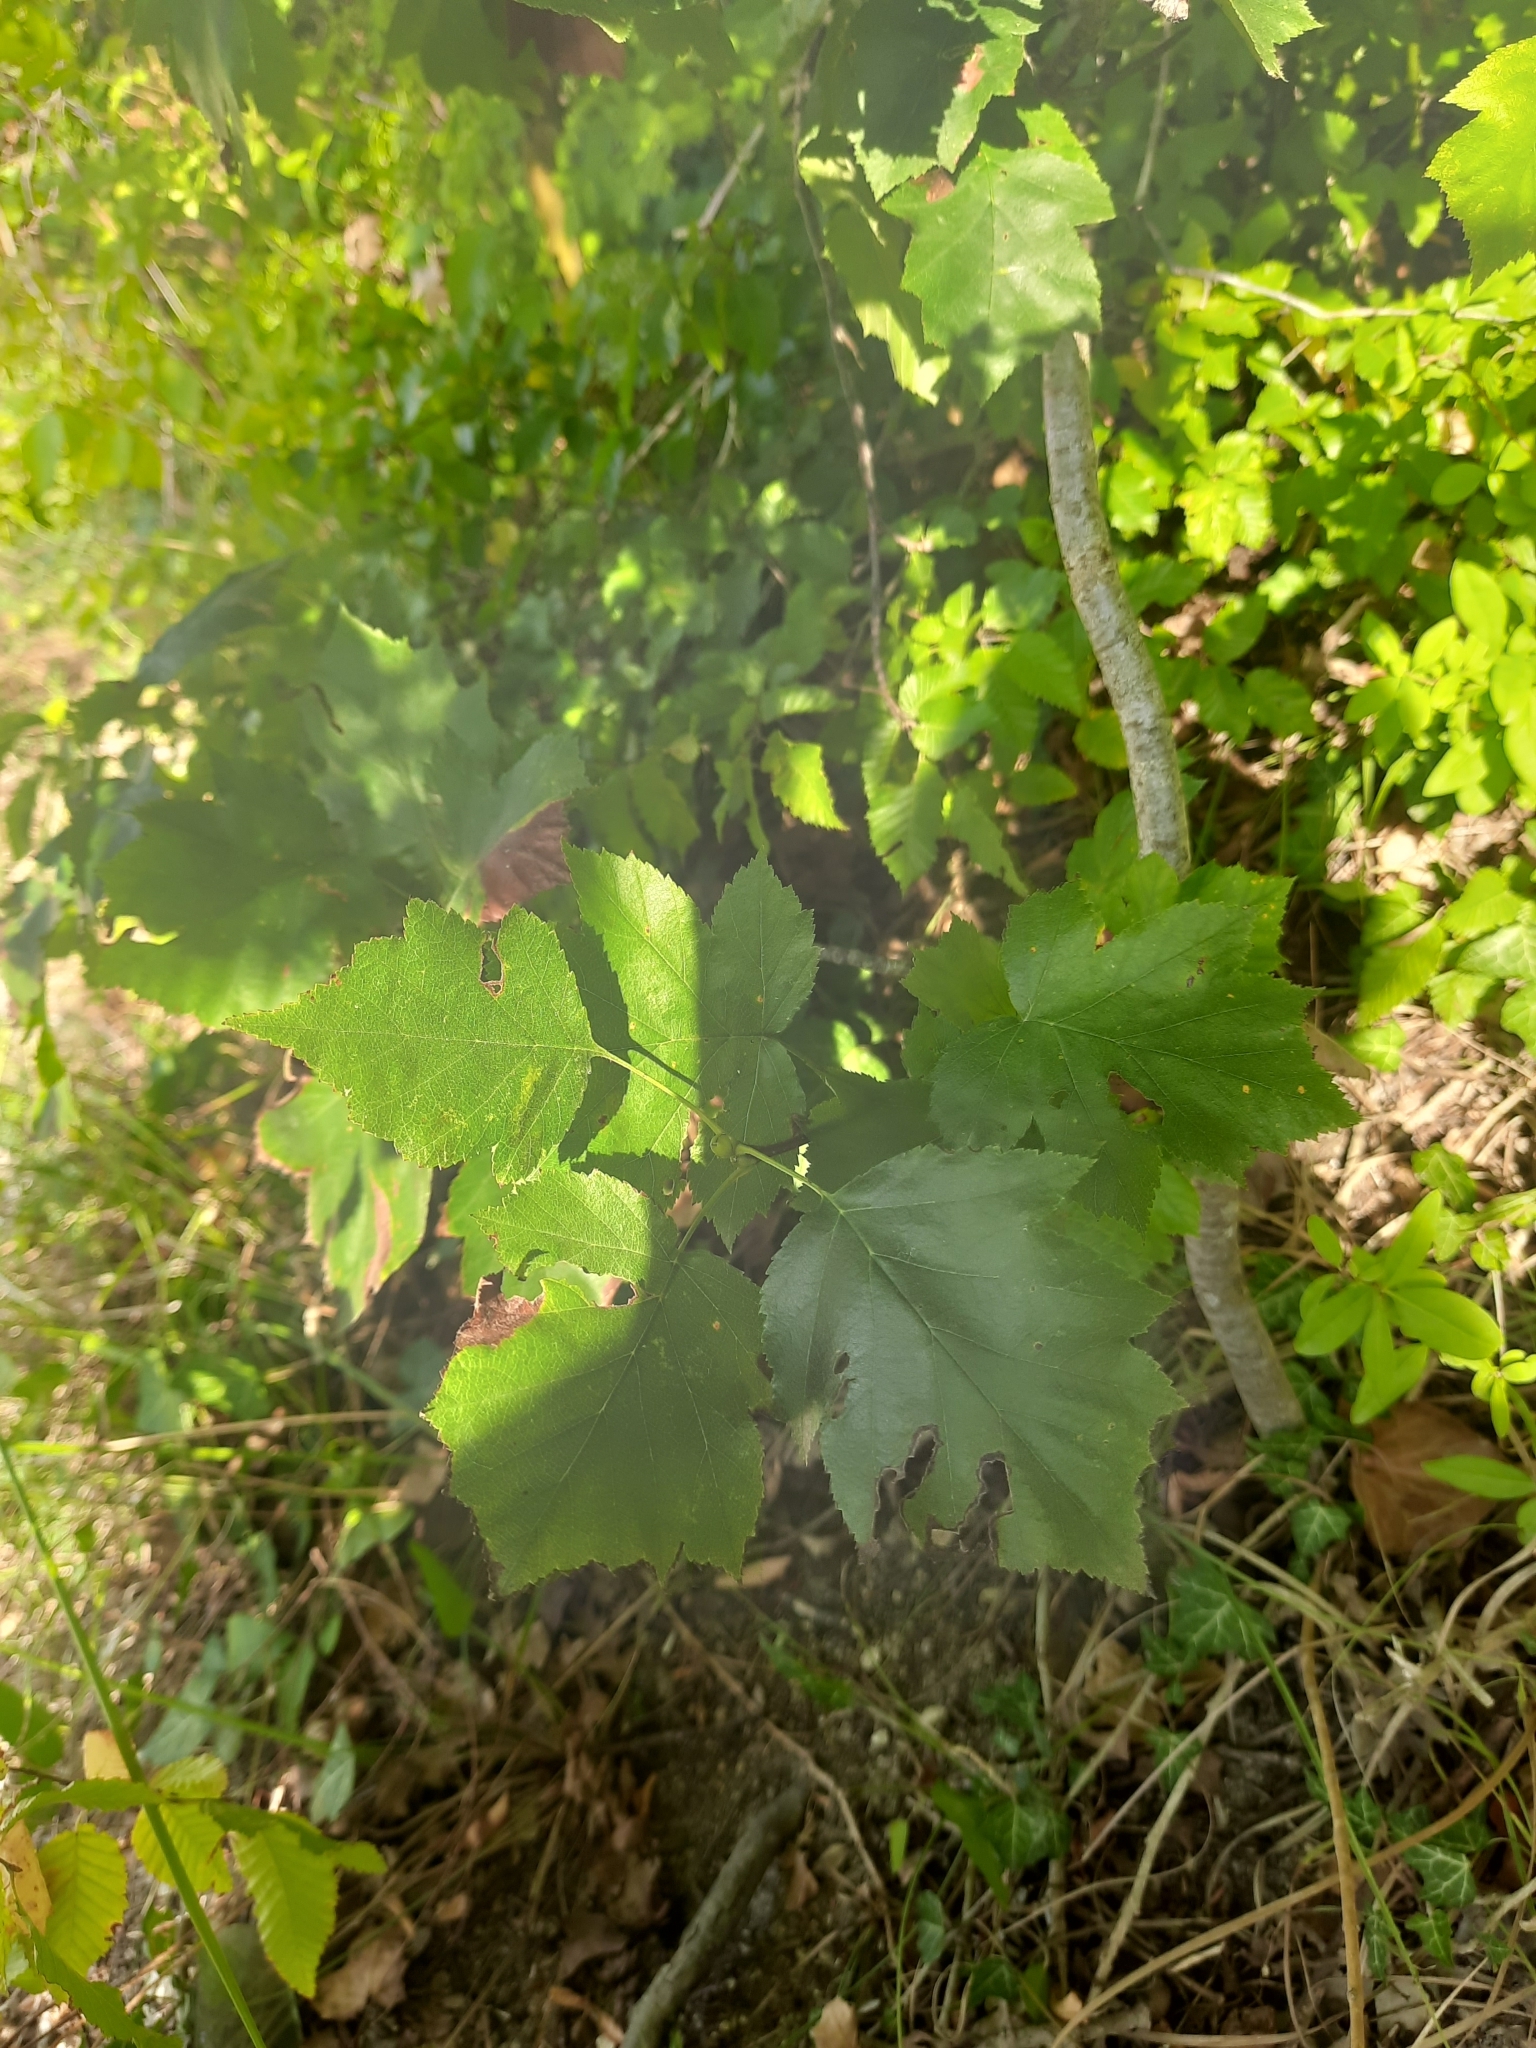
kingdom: Plantae
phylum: Tracheophyta
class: Magnoliopsida
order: Rosales
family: Rosaceae
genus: Torminalis
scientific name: Torminalis glaberrima
